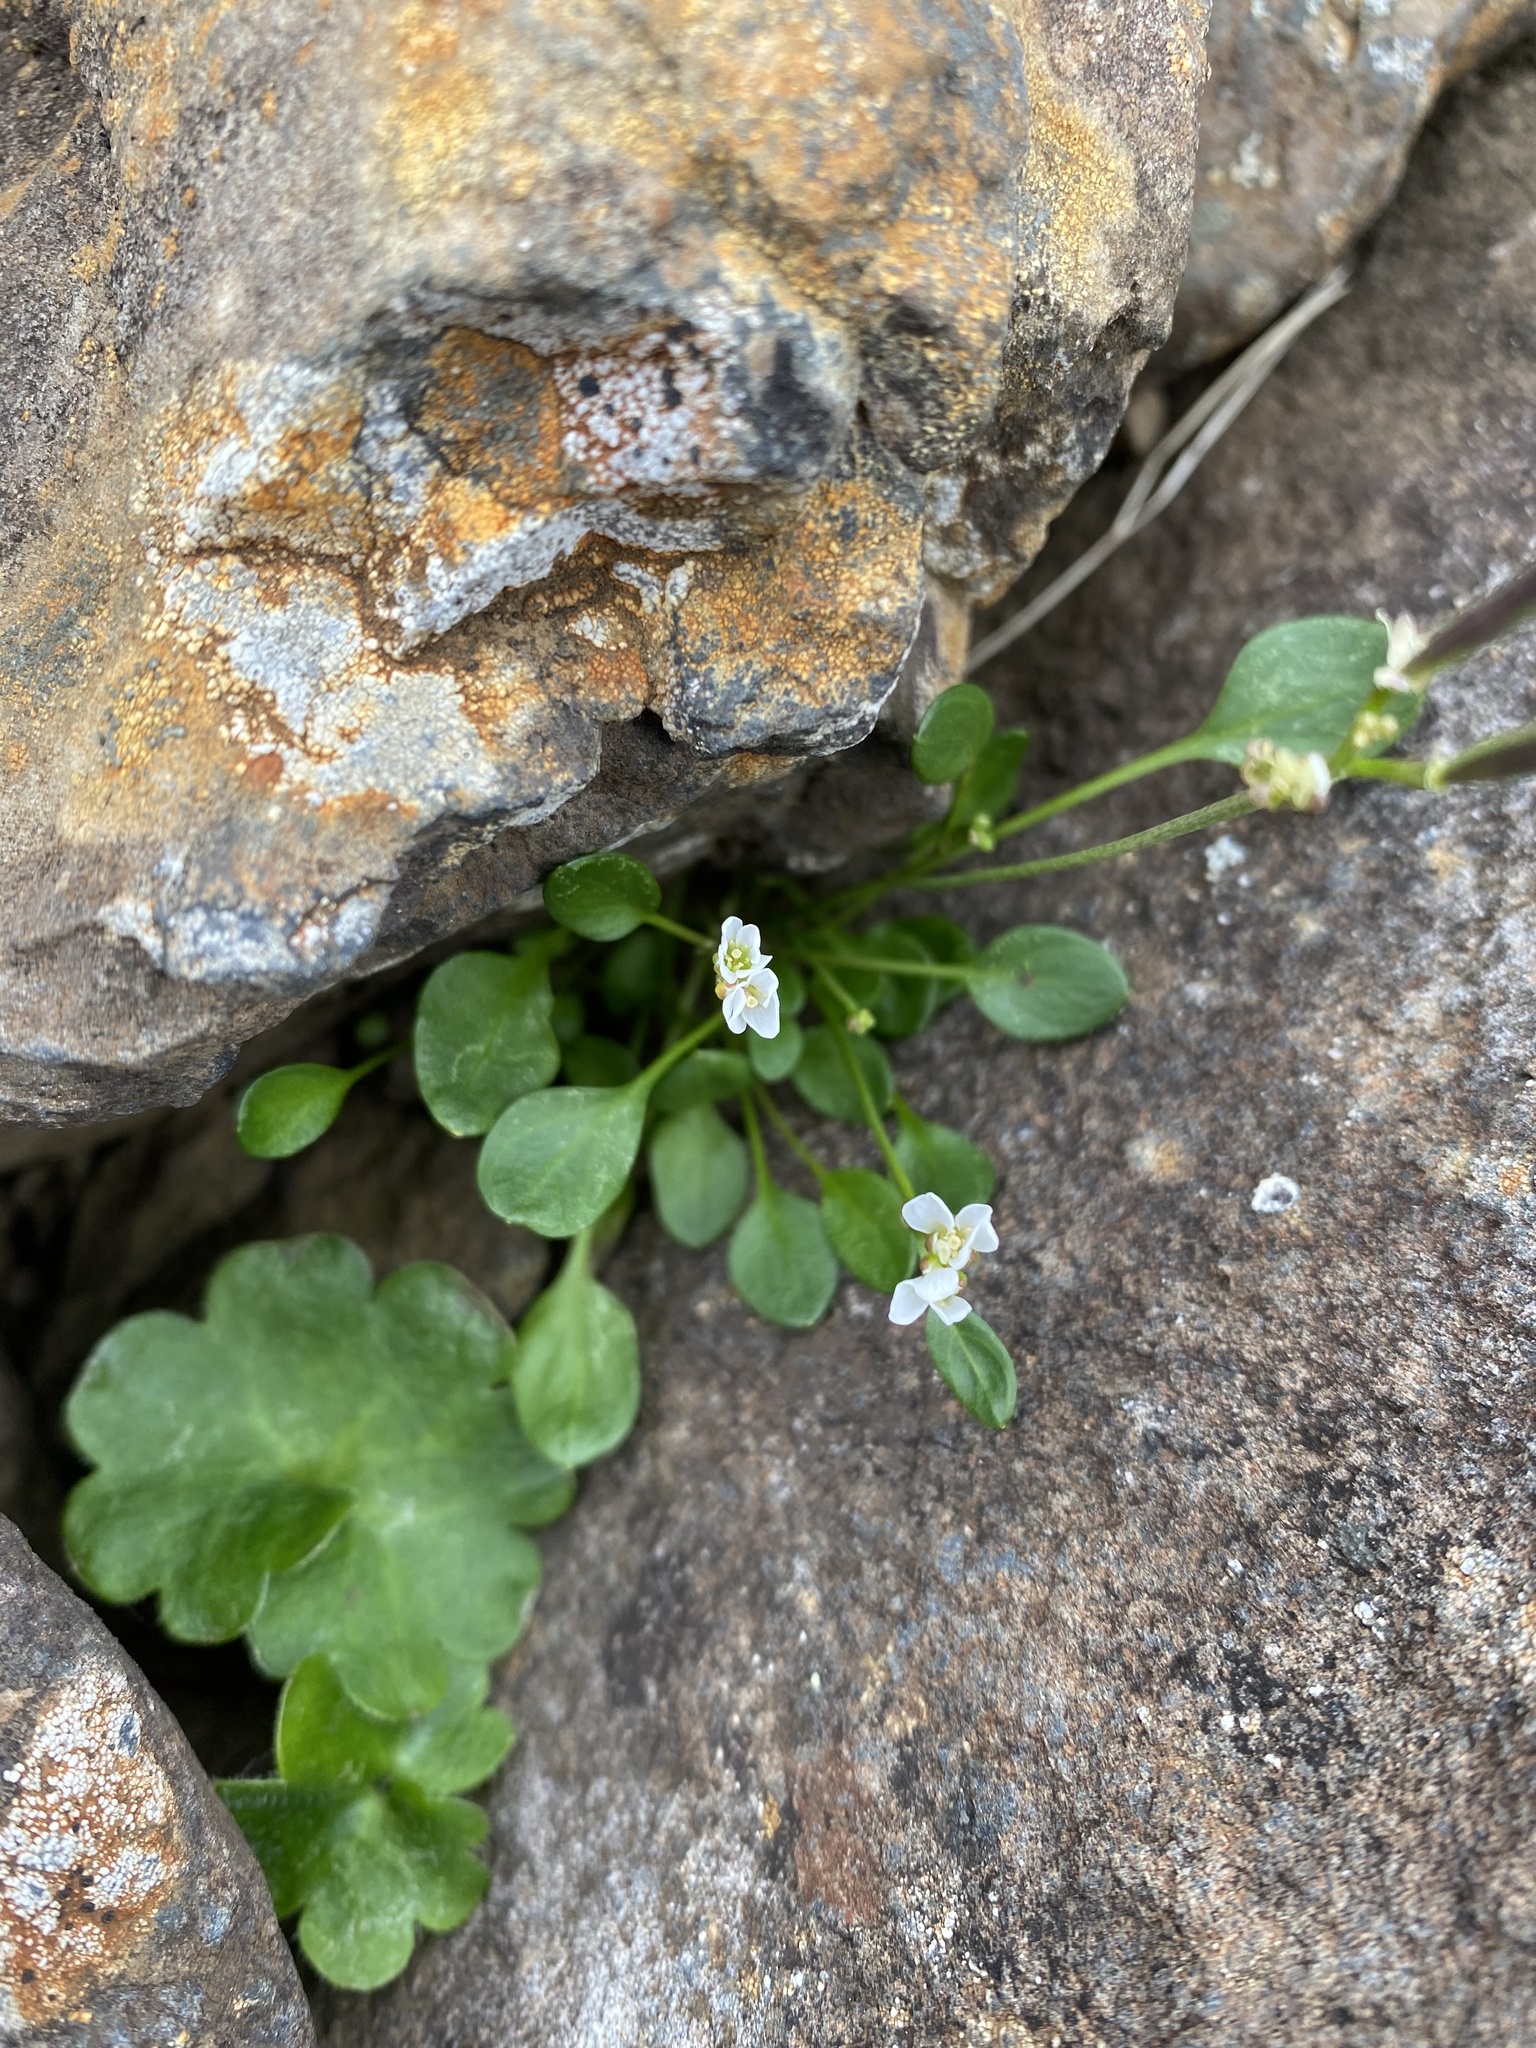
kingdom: Plantae
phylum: Tracheophyta
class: Magnoliopsida
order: Brassicales
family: Brassicaceae
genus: Cardamine
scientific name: Cardamine bellidifolia
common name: Alpine bittercress
